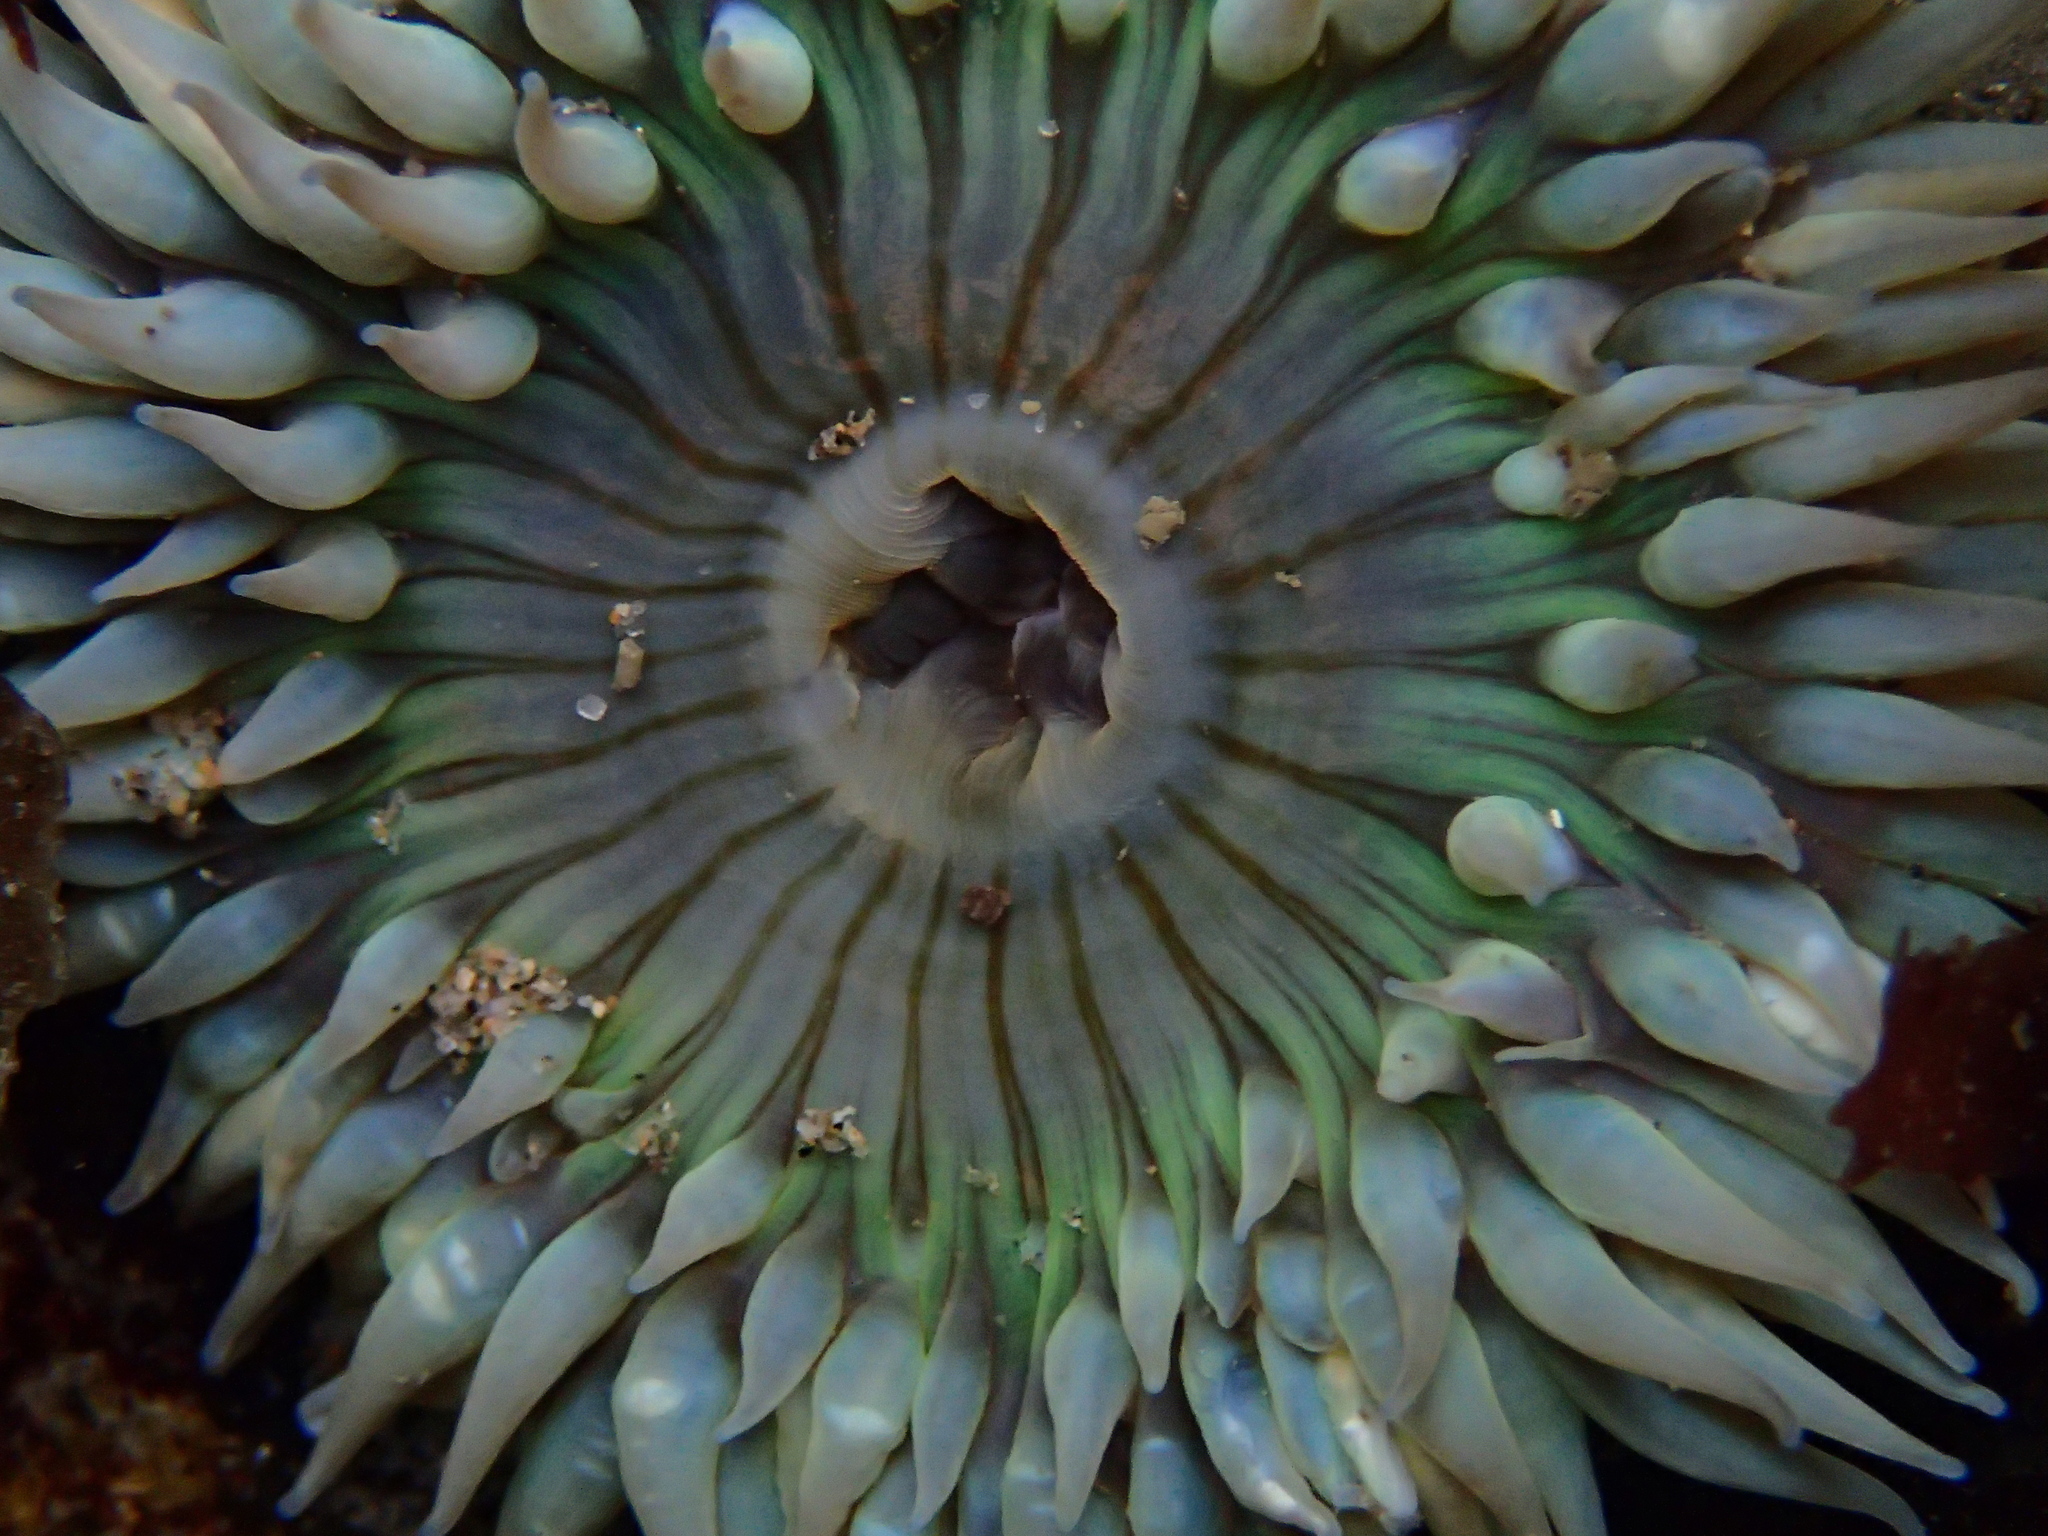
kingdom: Animalia
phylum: Cnidaria
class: Anthozoa
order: Actiniaria
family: Actiniidae
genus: Anthopleura
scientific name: Anthopleura sola
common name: Sun anemone
